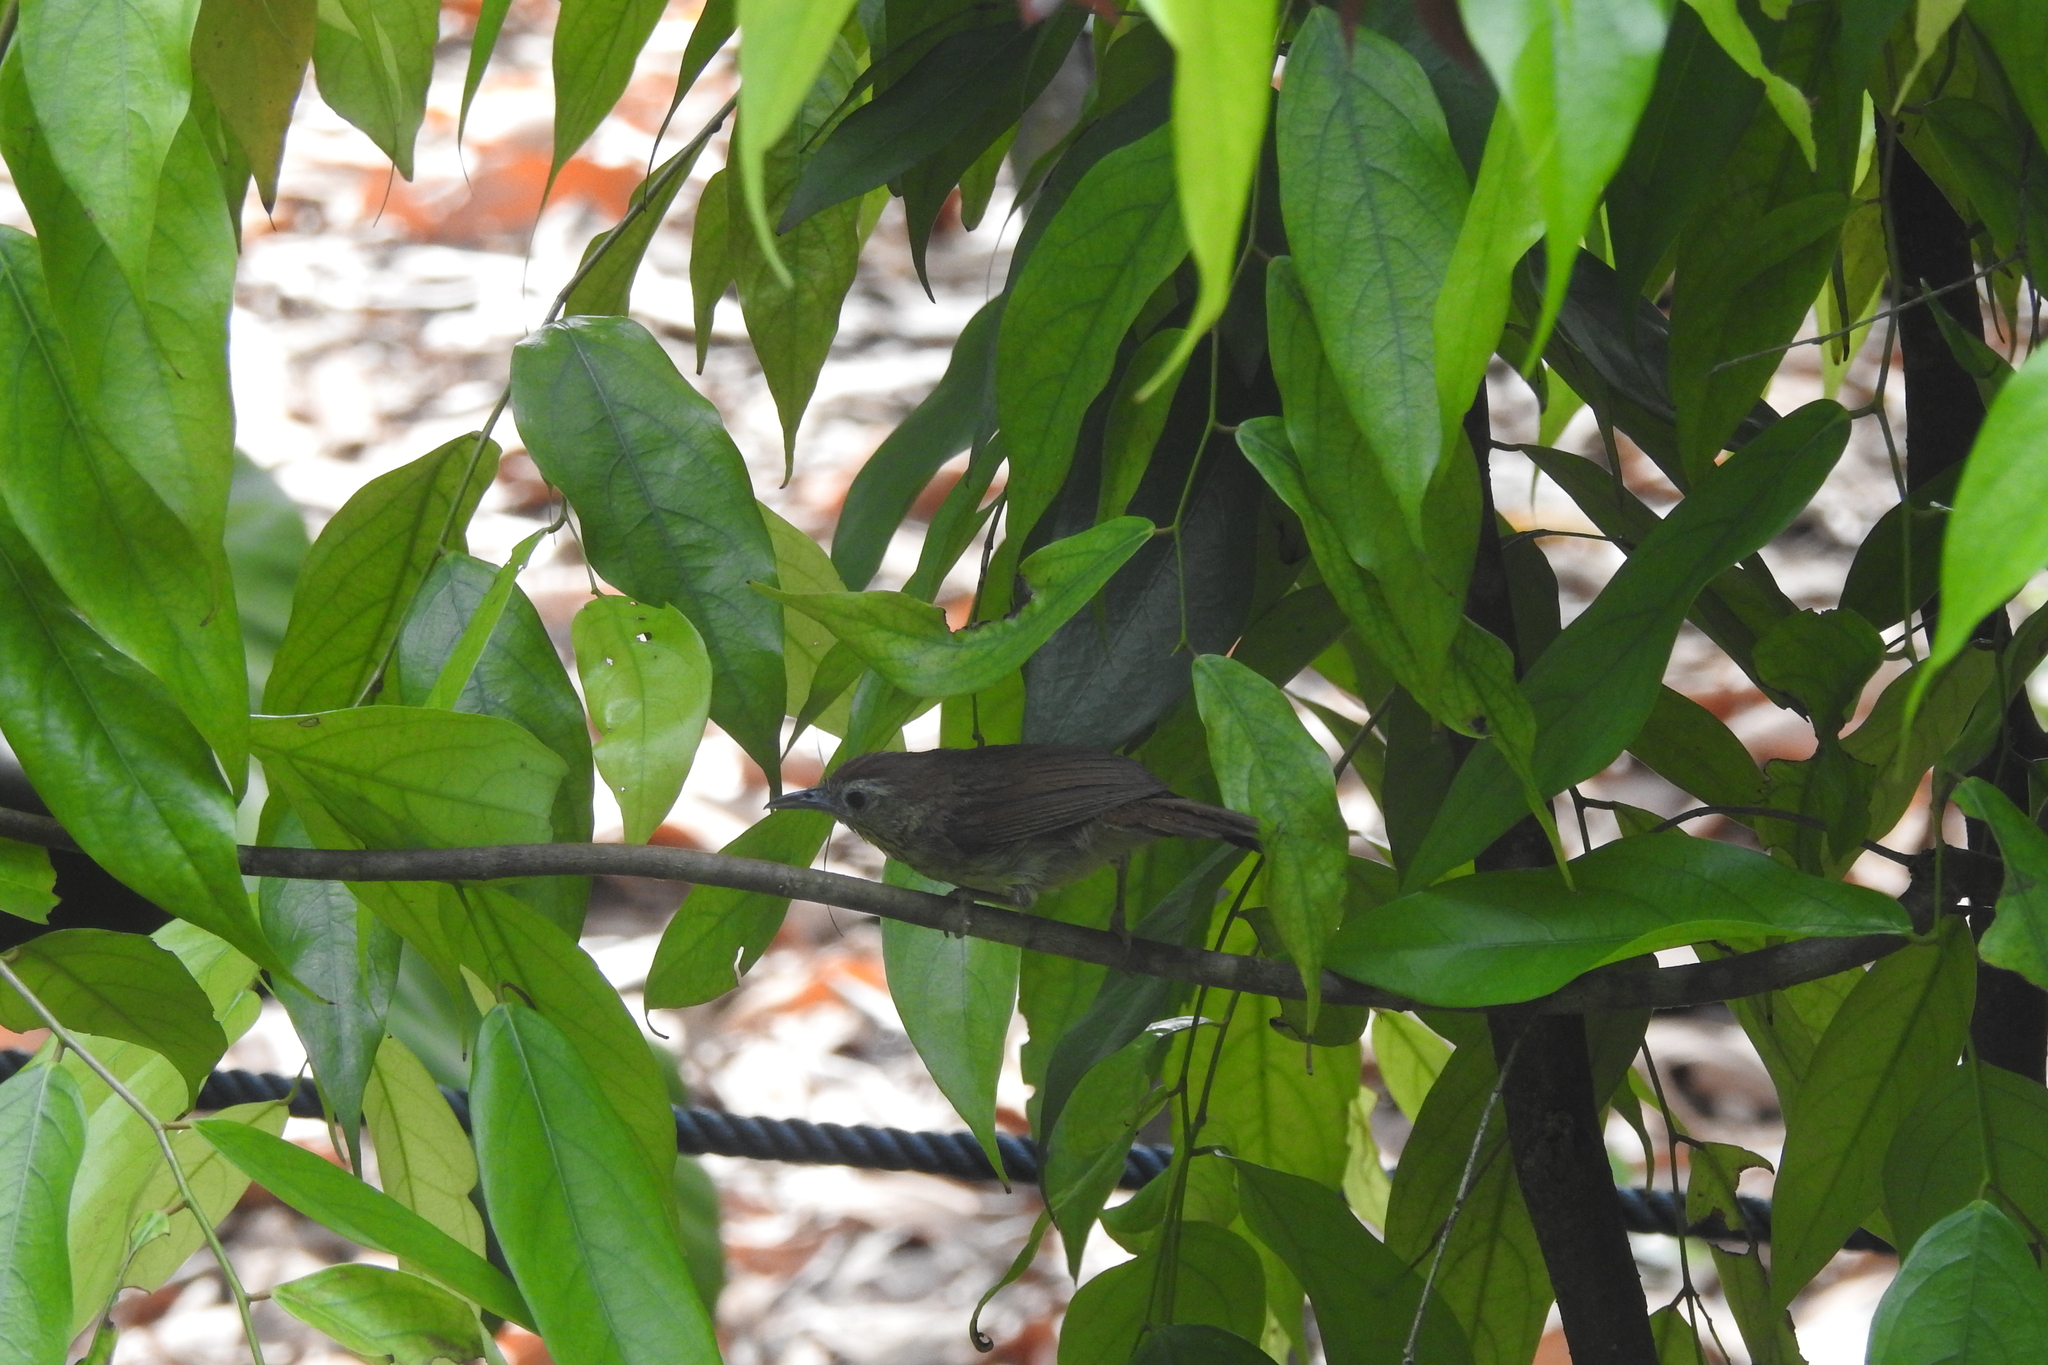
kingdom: Animalia
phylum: Chordata
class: Aves
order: Passeriformes
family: Timaliidae
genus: Macronus
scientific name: Macronus gularis
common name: Striped tit-babbler
